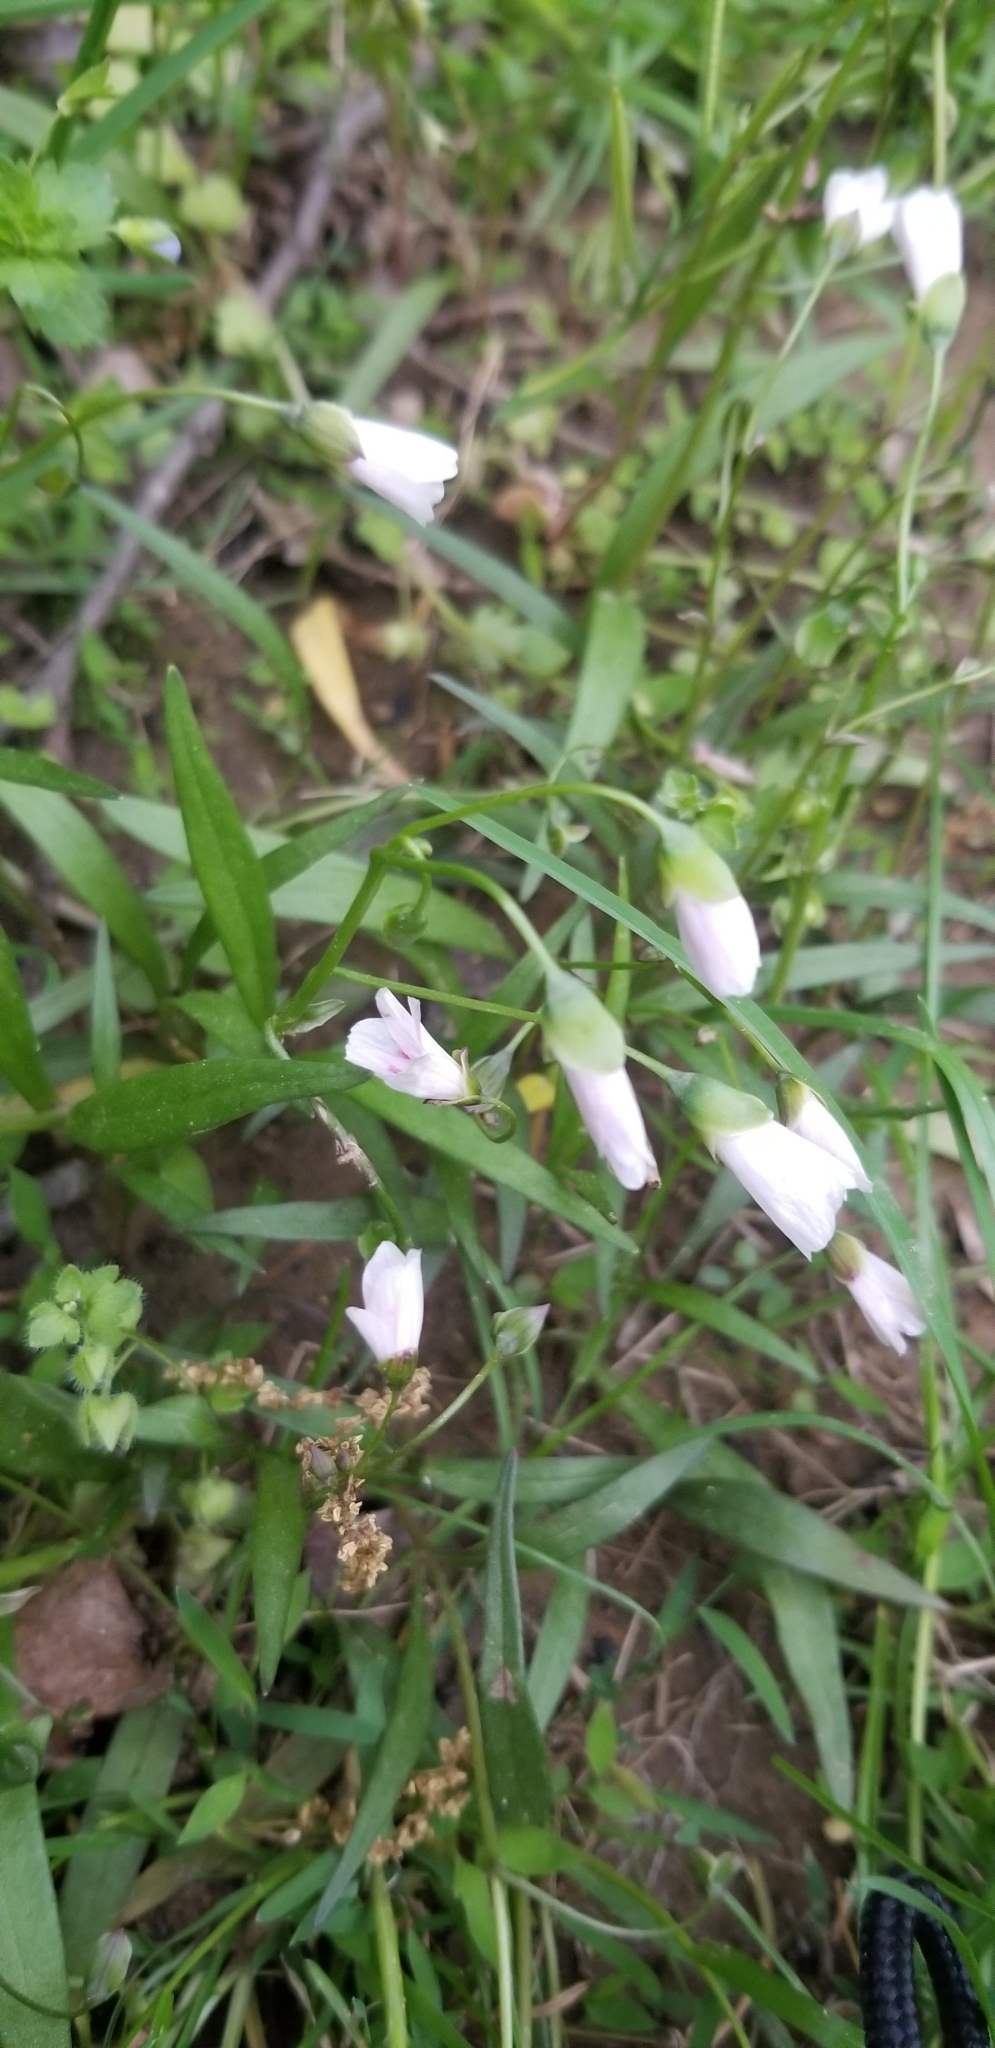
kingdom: Plantae
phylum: Tracheophyta
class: Magnoliopsida
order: Caryophyllales
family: Montiaceae
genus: Claytonia
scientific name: Claytonia virginica
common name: Virginia springbeauty
